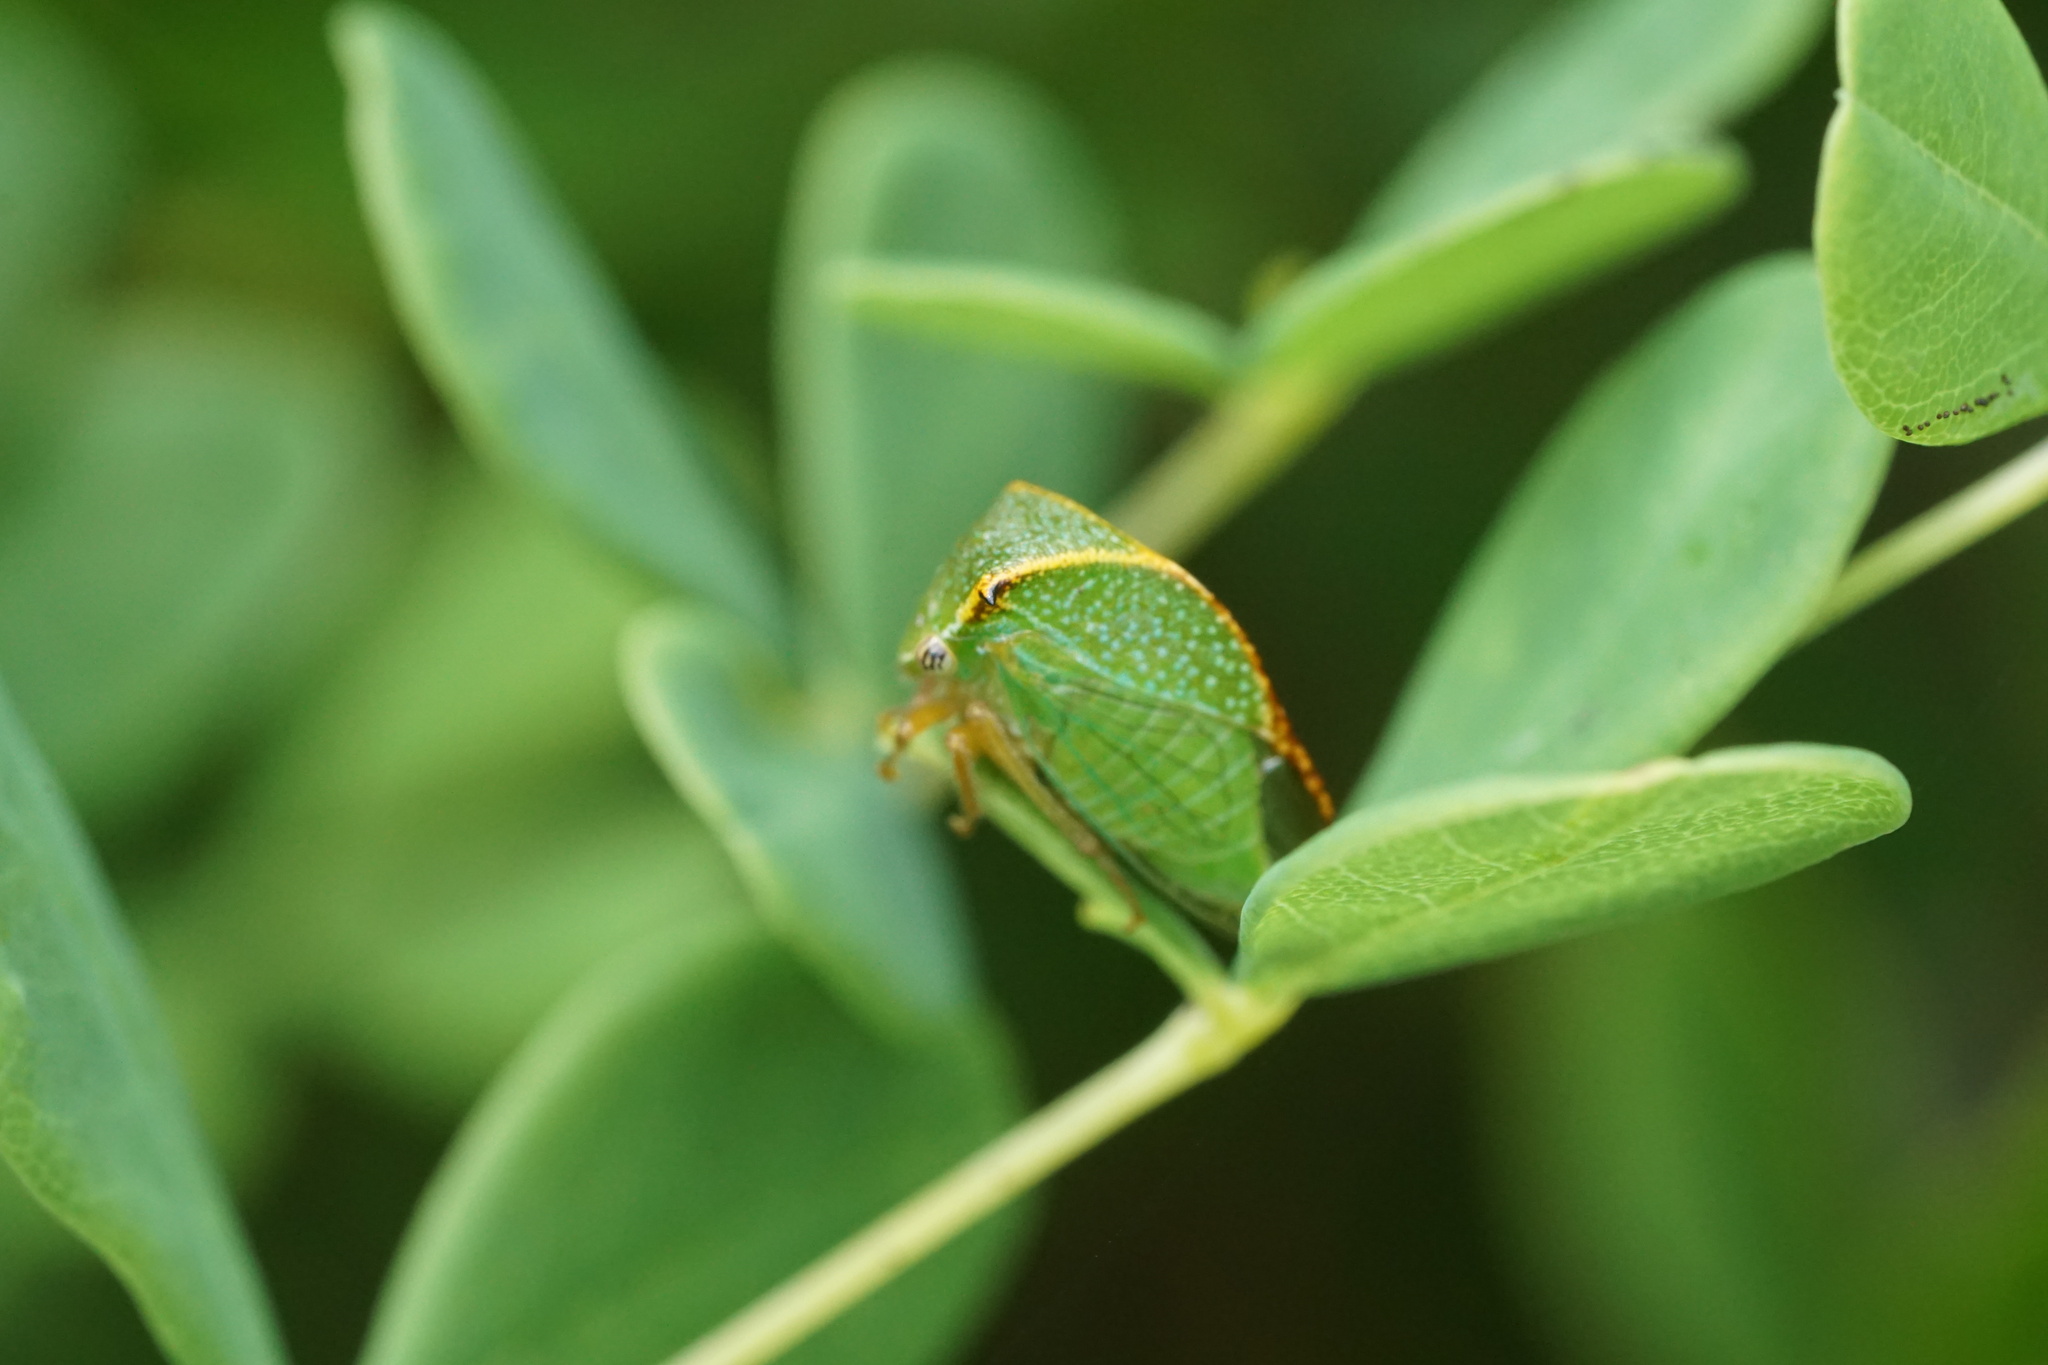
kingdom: Animalia
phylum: Arthropoda
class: Insecta
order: Hemiptera
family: Membracidae
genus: Stictocephala
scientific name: Stictocephala brevicornis
